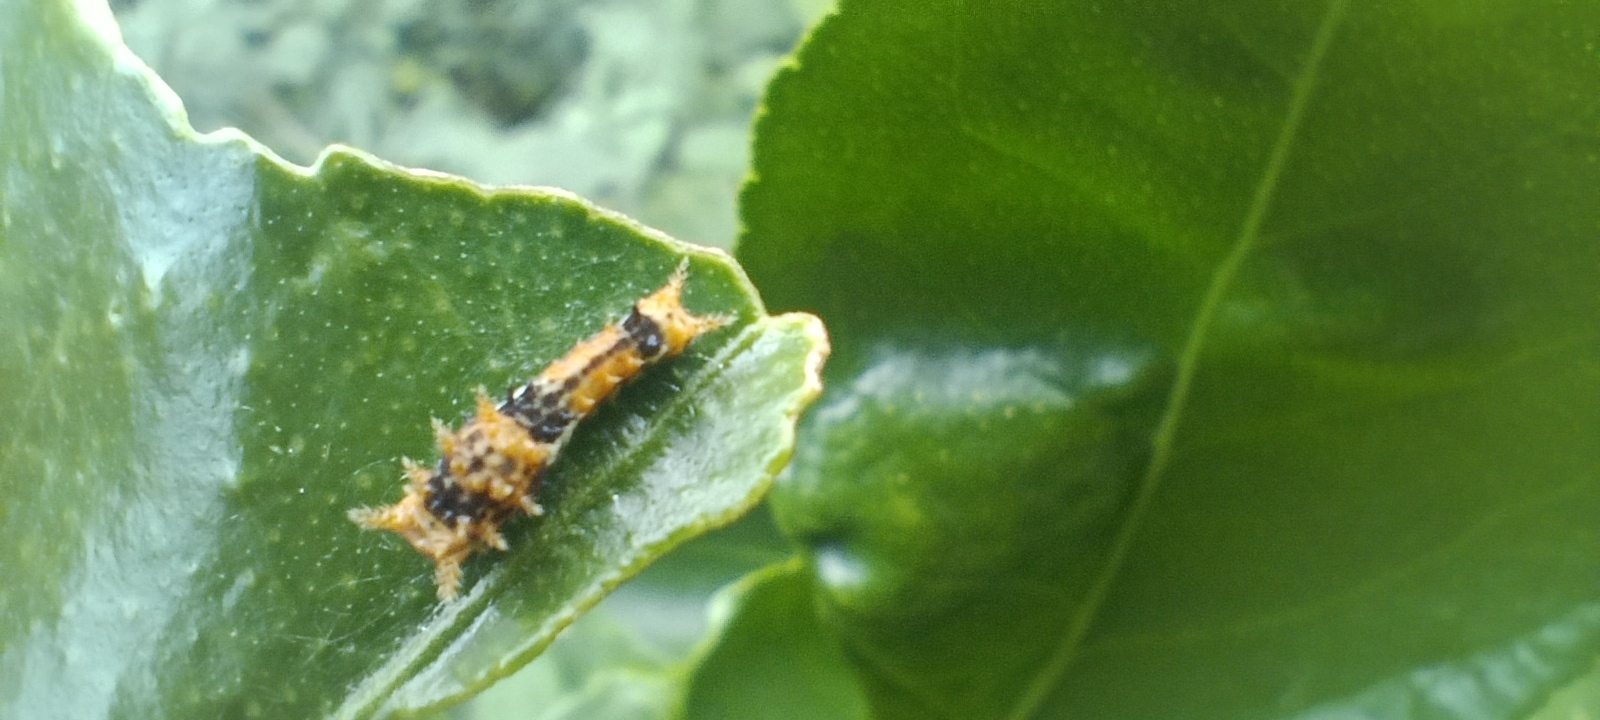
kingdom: Animalia
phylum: Arthropoda
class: Insecta
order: Lepidoptera
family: Papilionidae
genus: Papilio
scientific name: Papilio nireus
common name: Greenbanded swallowtail
